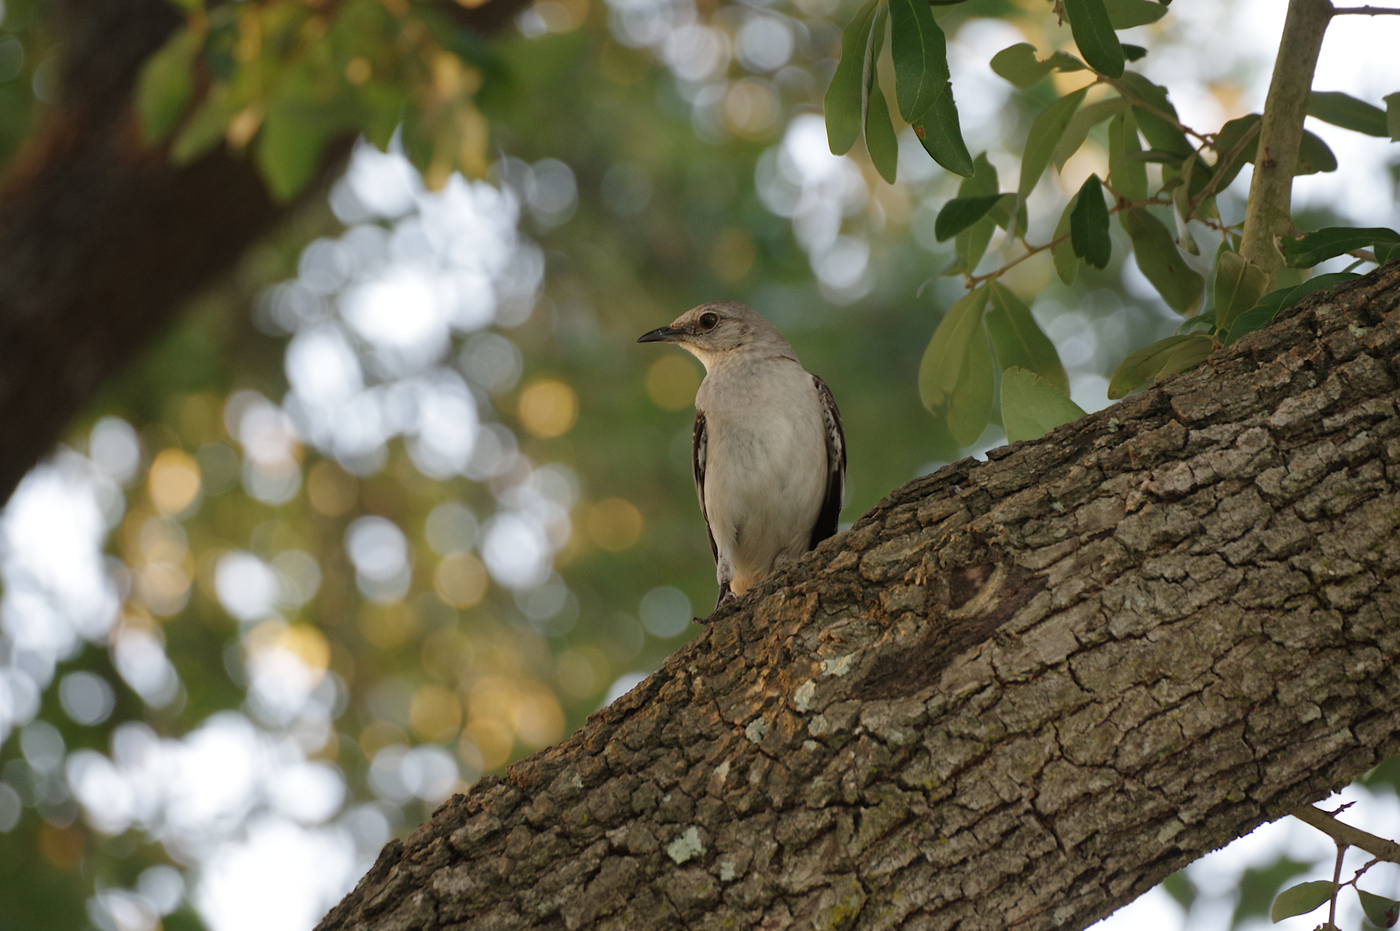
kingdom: Animalia
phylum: Chordata
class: Aves
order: Passeriformes
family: Mimidae
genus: Mimus
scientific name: Mimus polyglottos
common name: Northern mockingbird
